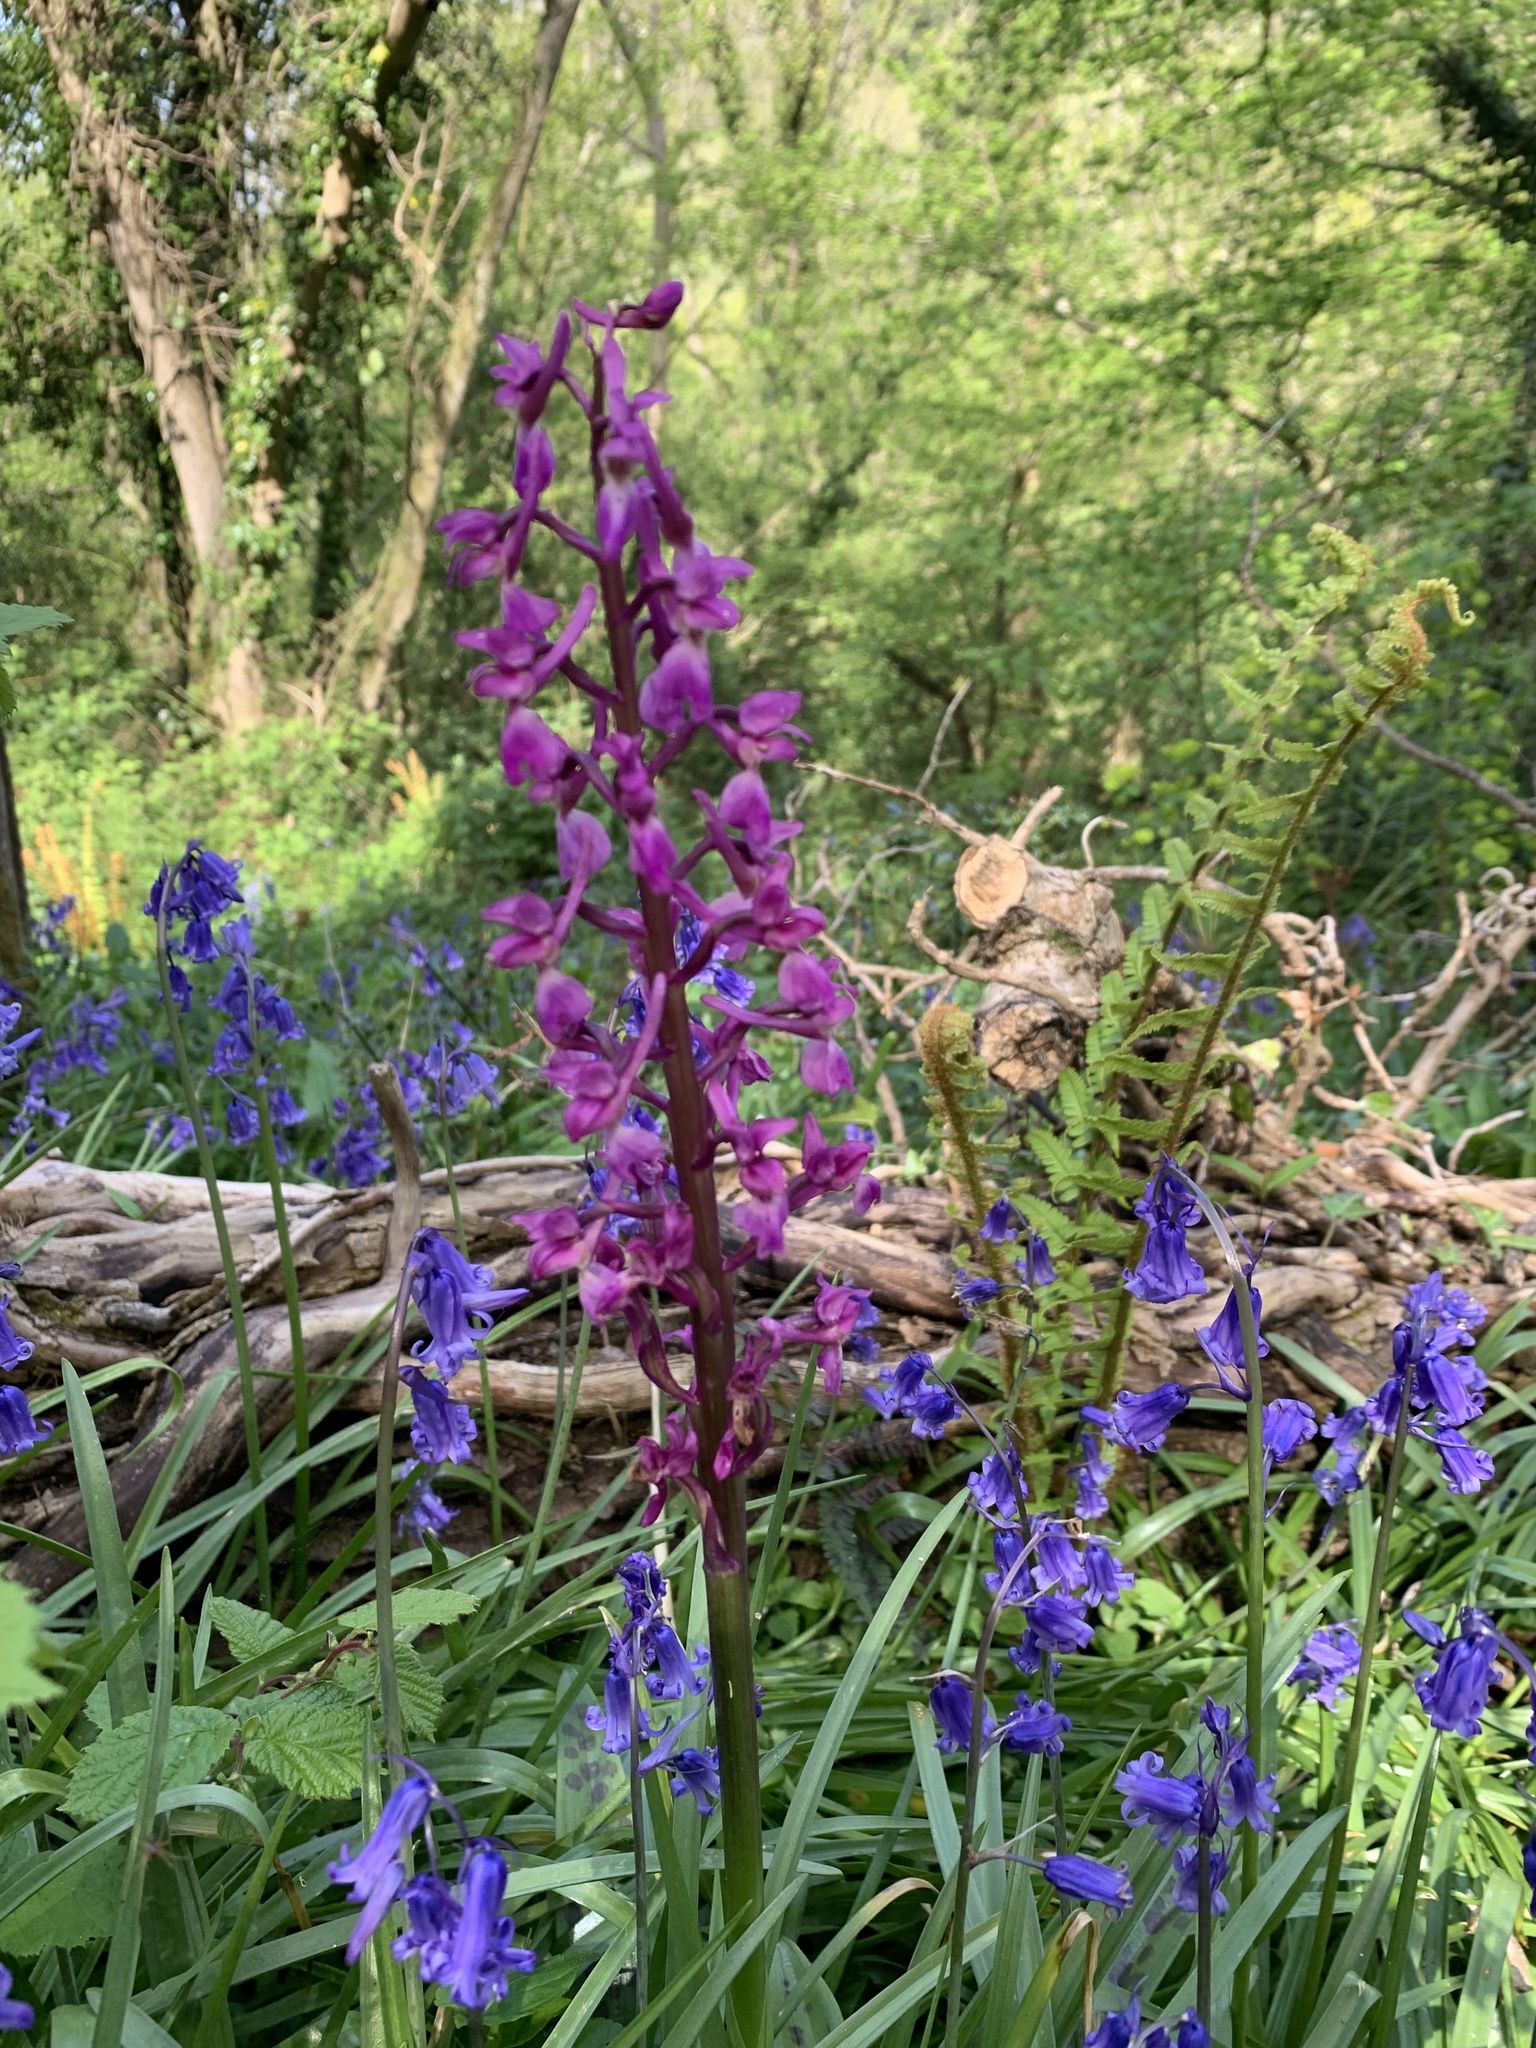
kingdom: Plantae
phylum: Tracheophyta
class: Liliopsida
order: Asparagales
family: Orchidaceae
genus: Orchis
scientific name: Orchis mascula
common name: Early-purple orchid
